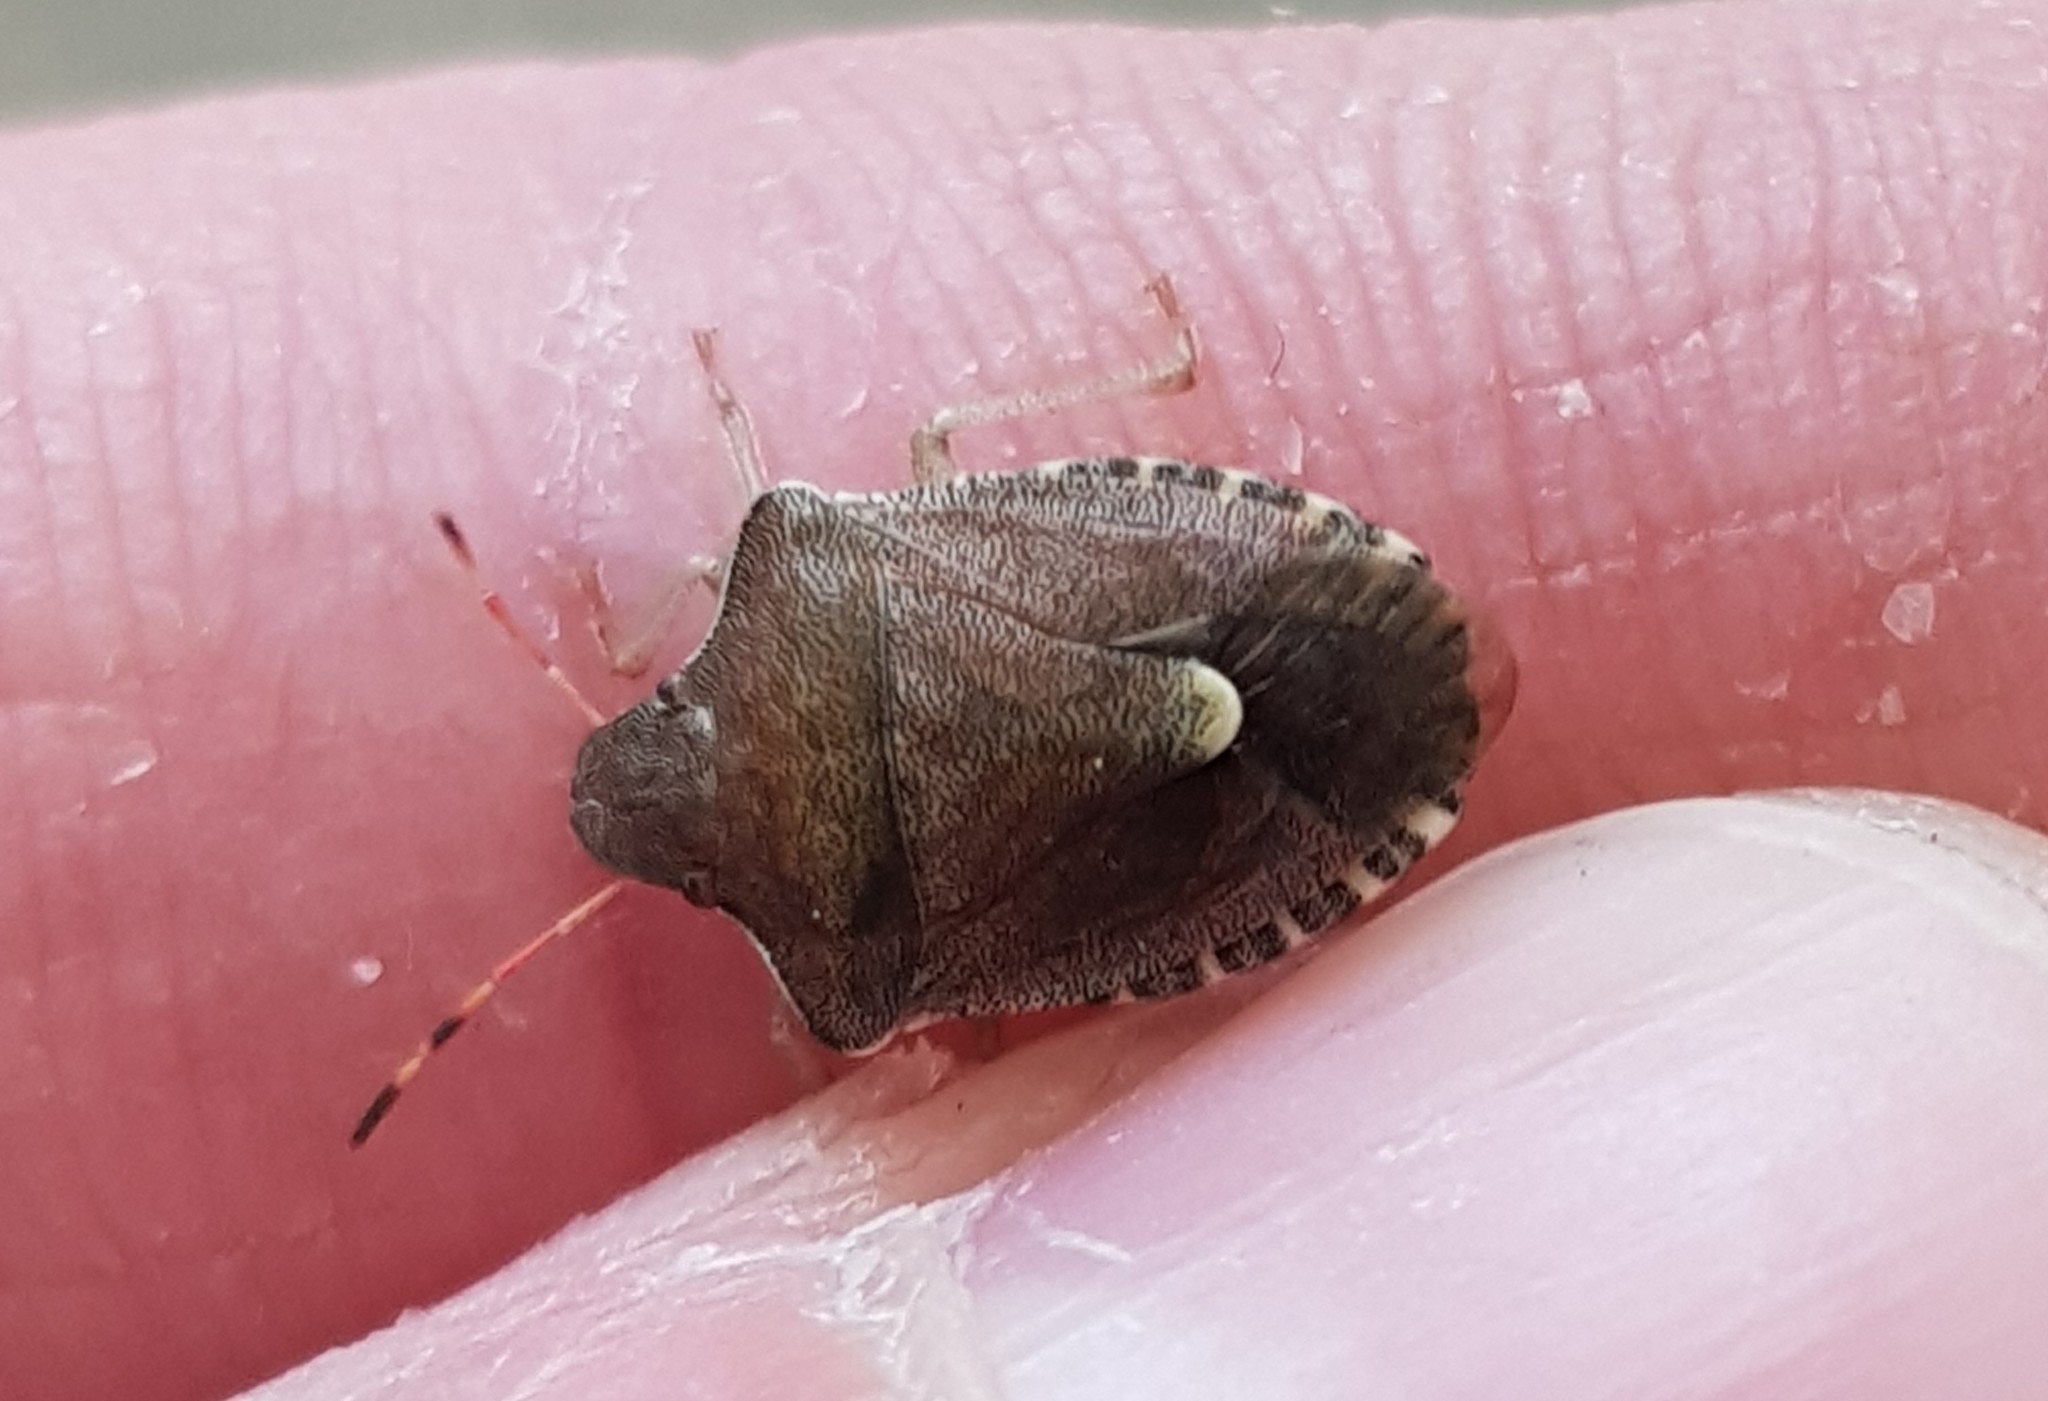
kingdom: Animalia
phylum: Arthropoda
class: Insecta
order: Hemiptera
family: Pentatomidae
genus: Holcostethus
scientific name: Holcostethus strictus
